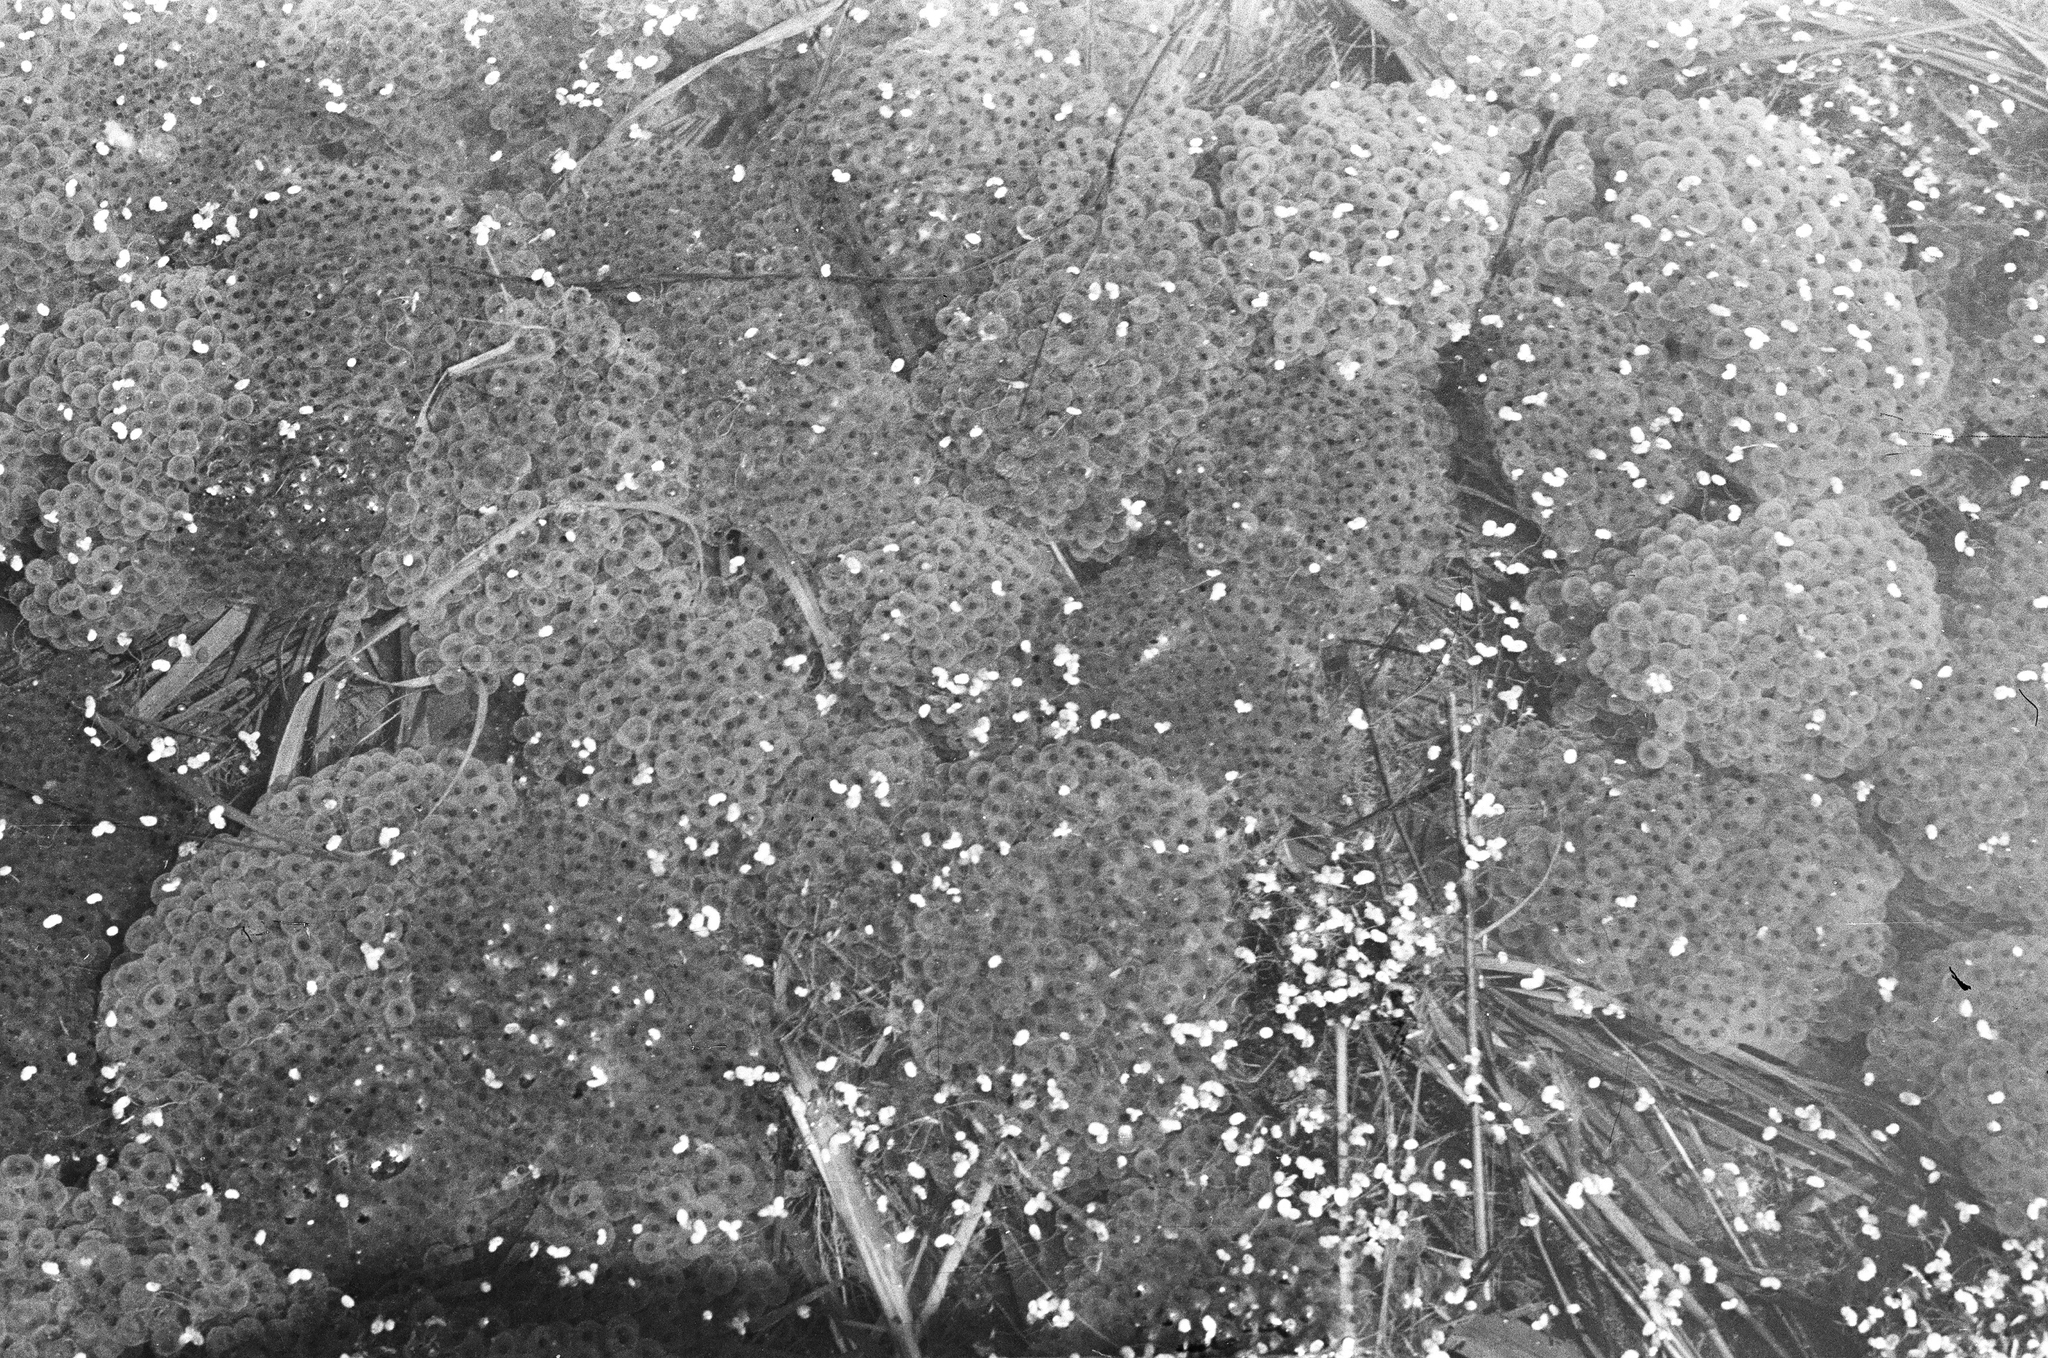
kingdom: Animalia
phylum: Chordata
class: Amphibia
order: Anura
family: Ranidae
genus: Rana
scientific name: Rana arvalis
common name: Moor frog
